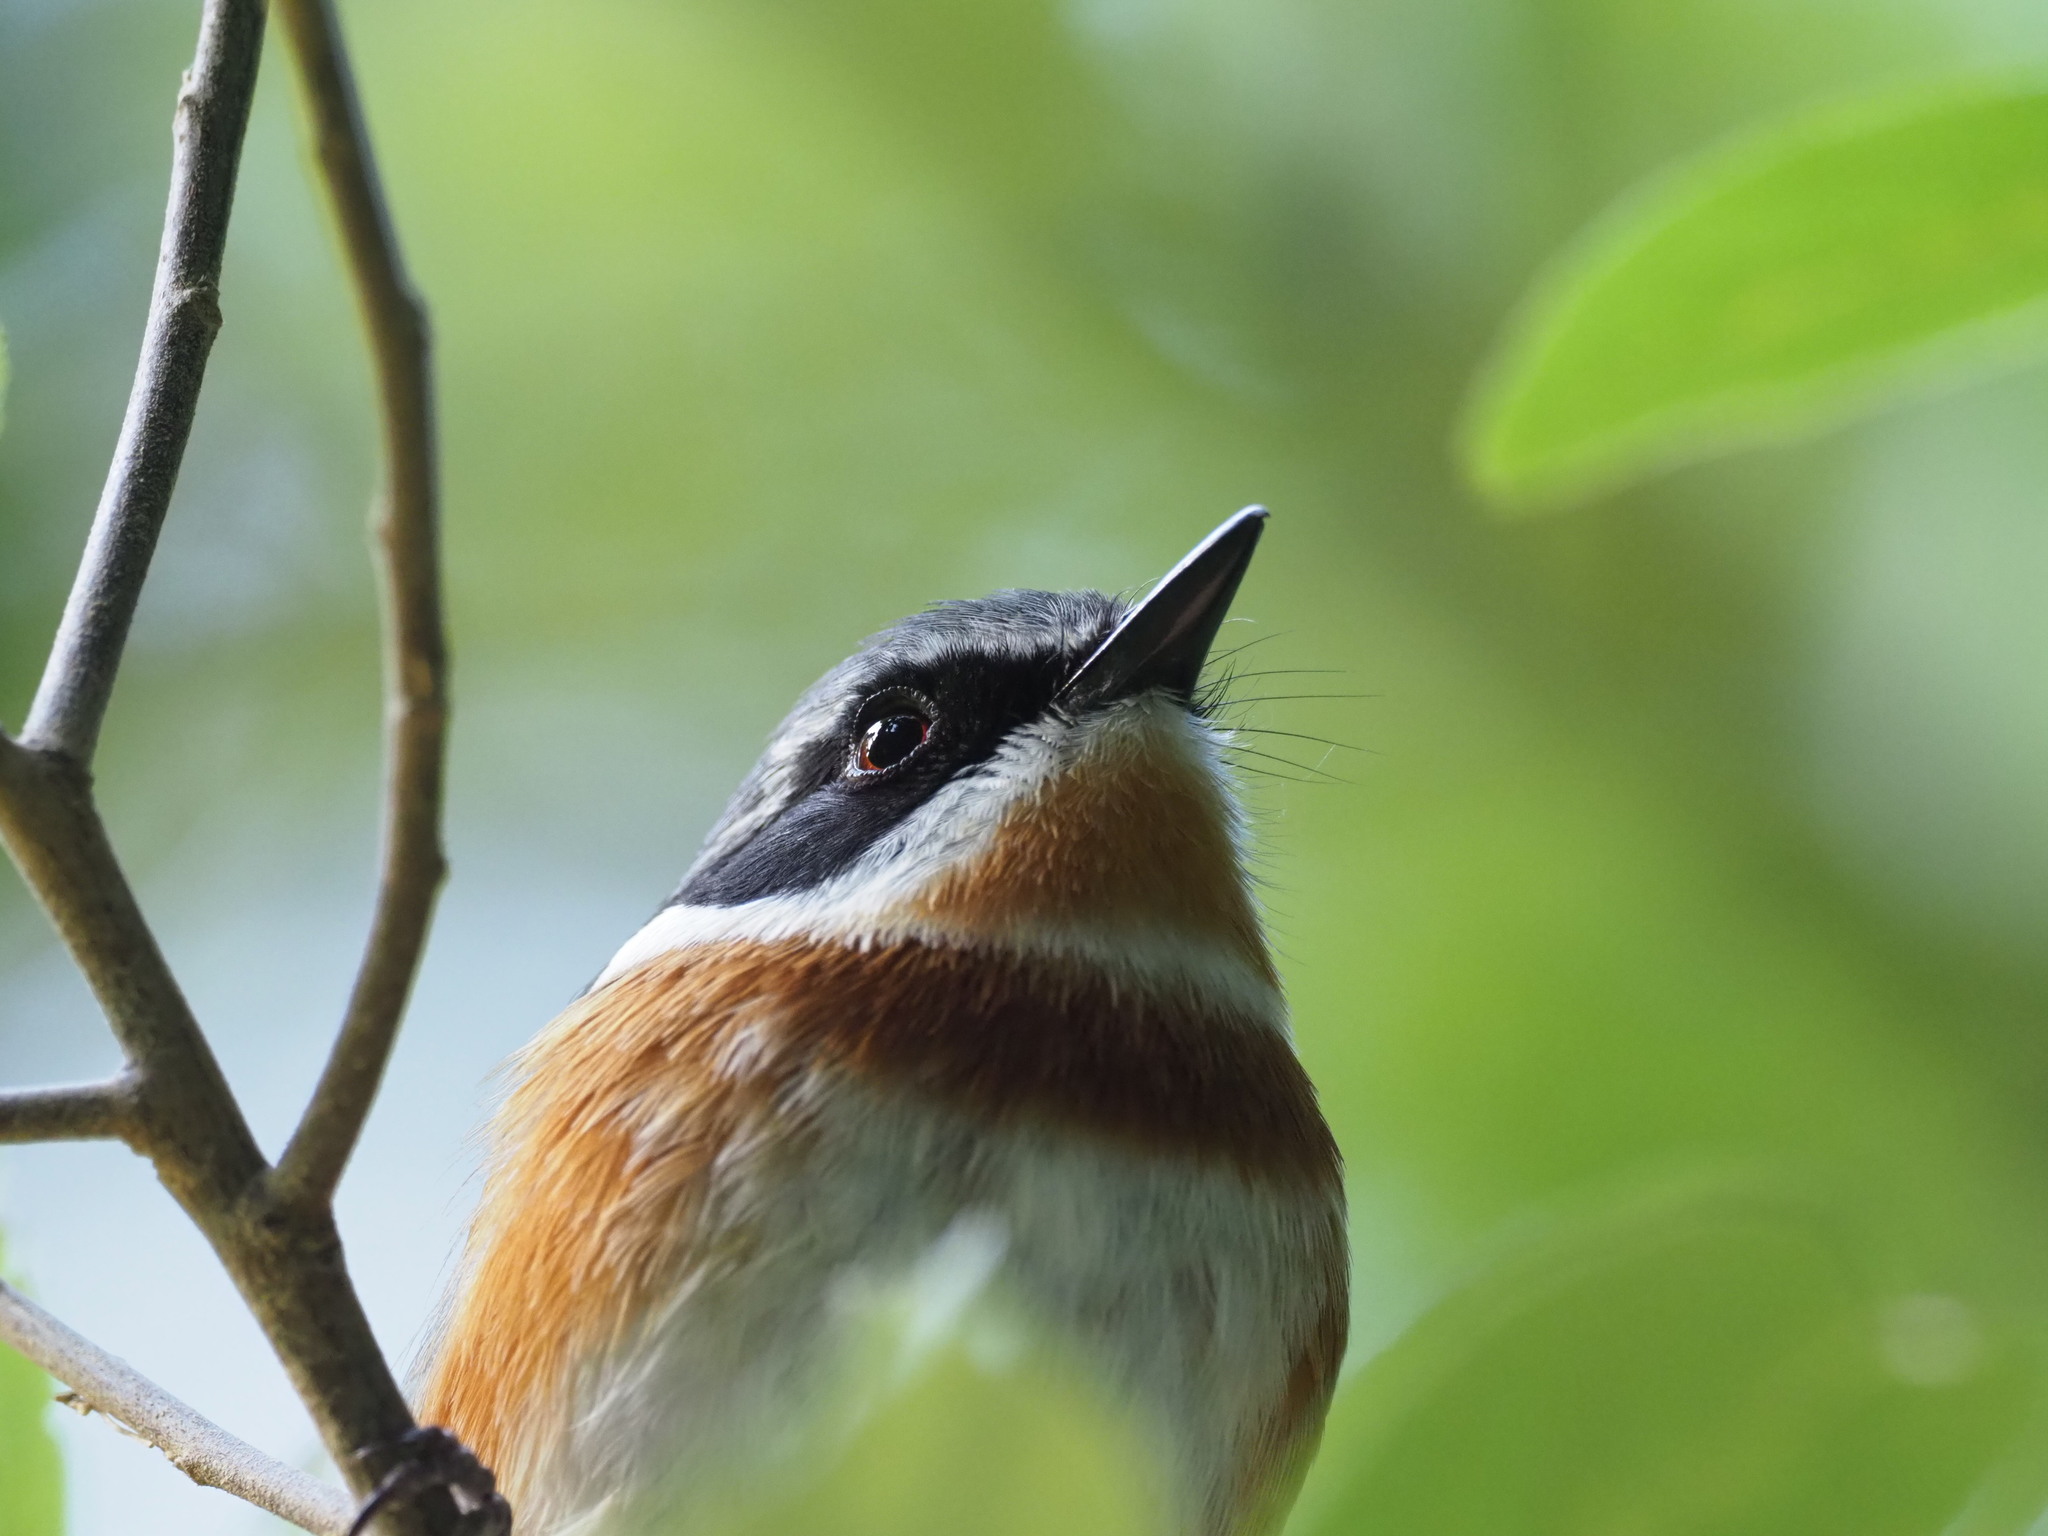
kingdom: Animalia
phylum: Chordata
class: Aves
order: Passeriformes
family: Platysteiridae
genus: Batis
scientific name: Batis capensis
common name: Cape batis
